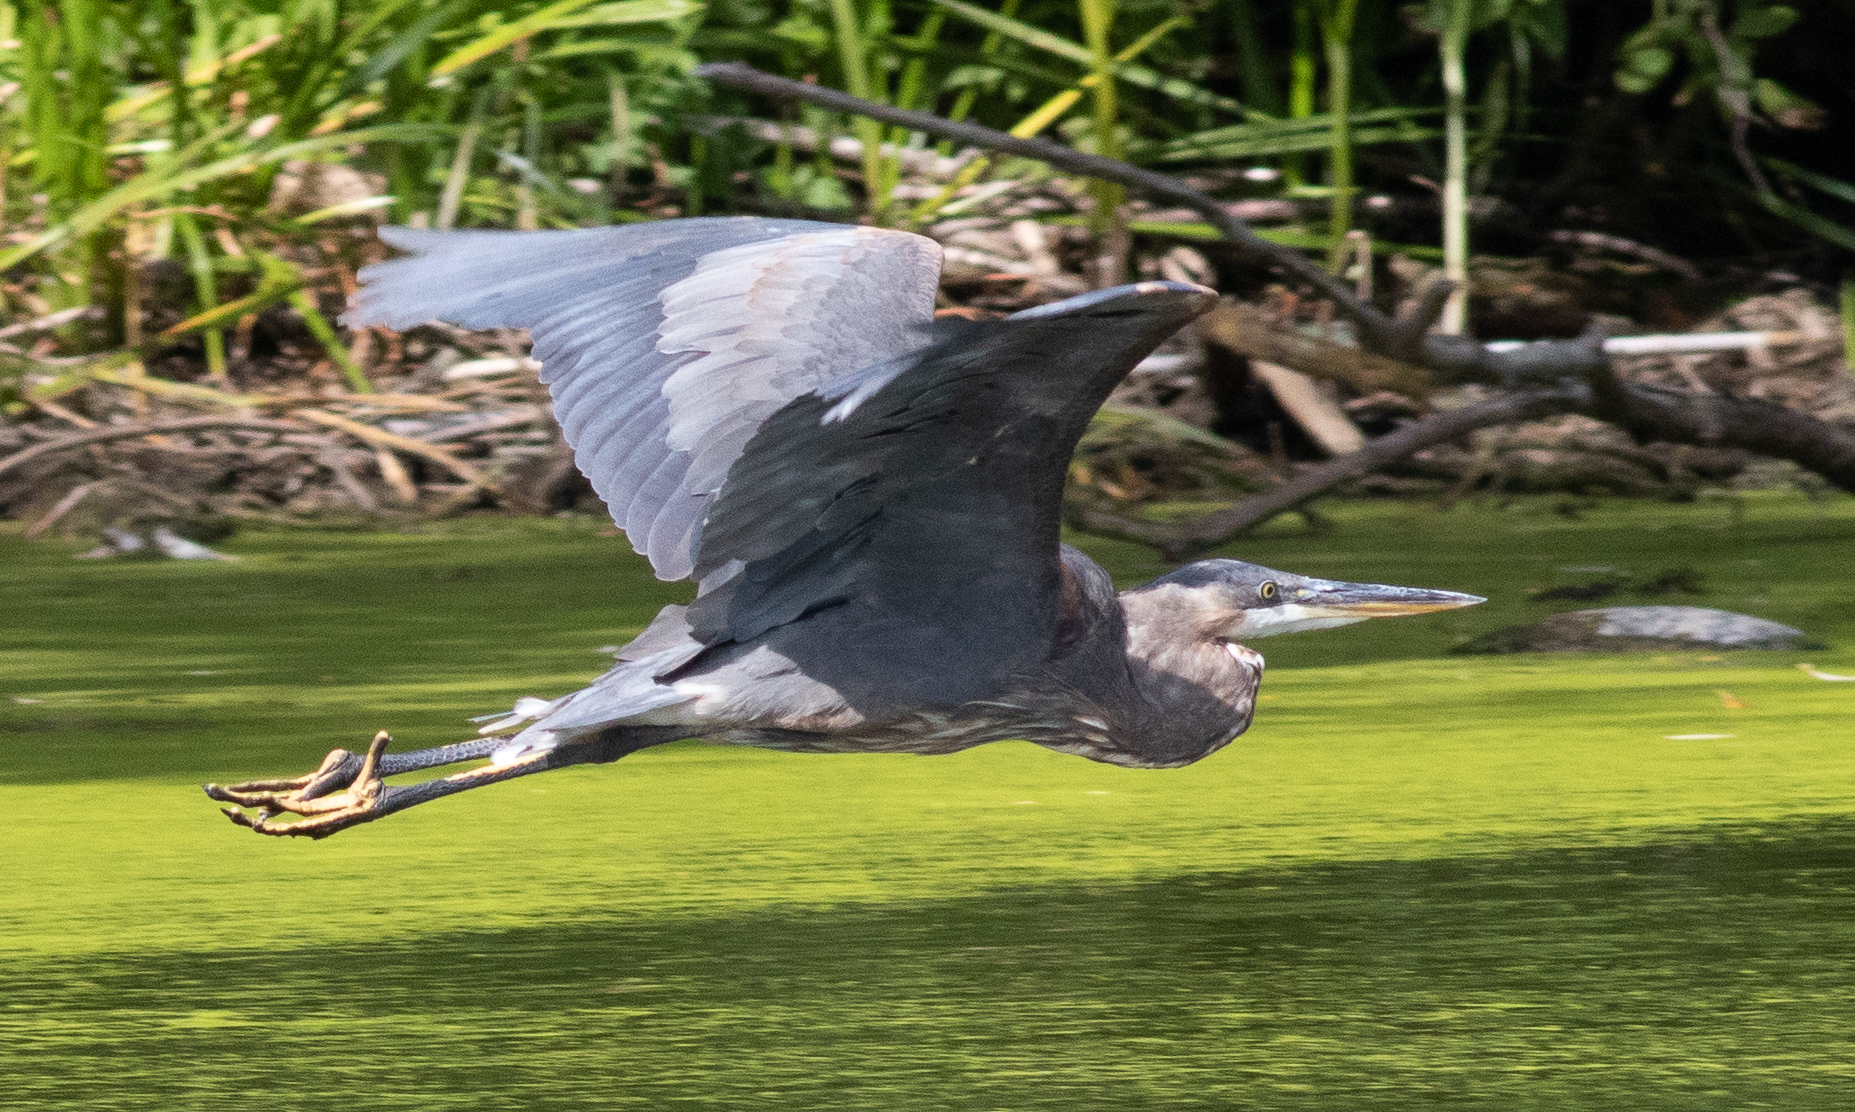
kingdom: Animalia
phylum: Chordata
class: Aves
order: Pelecaniformes
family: Ardeidae
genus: Ardea
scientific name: Ardea herodias
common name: Great blue heron
